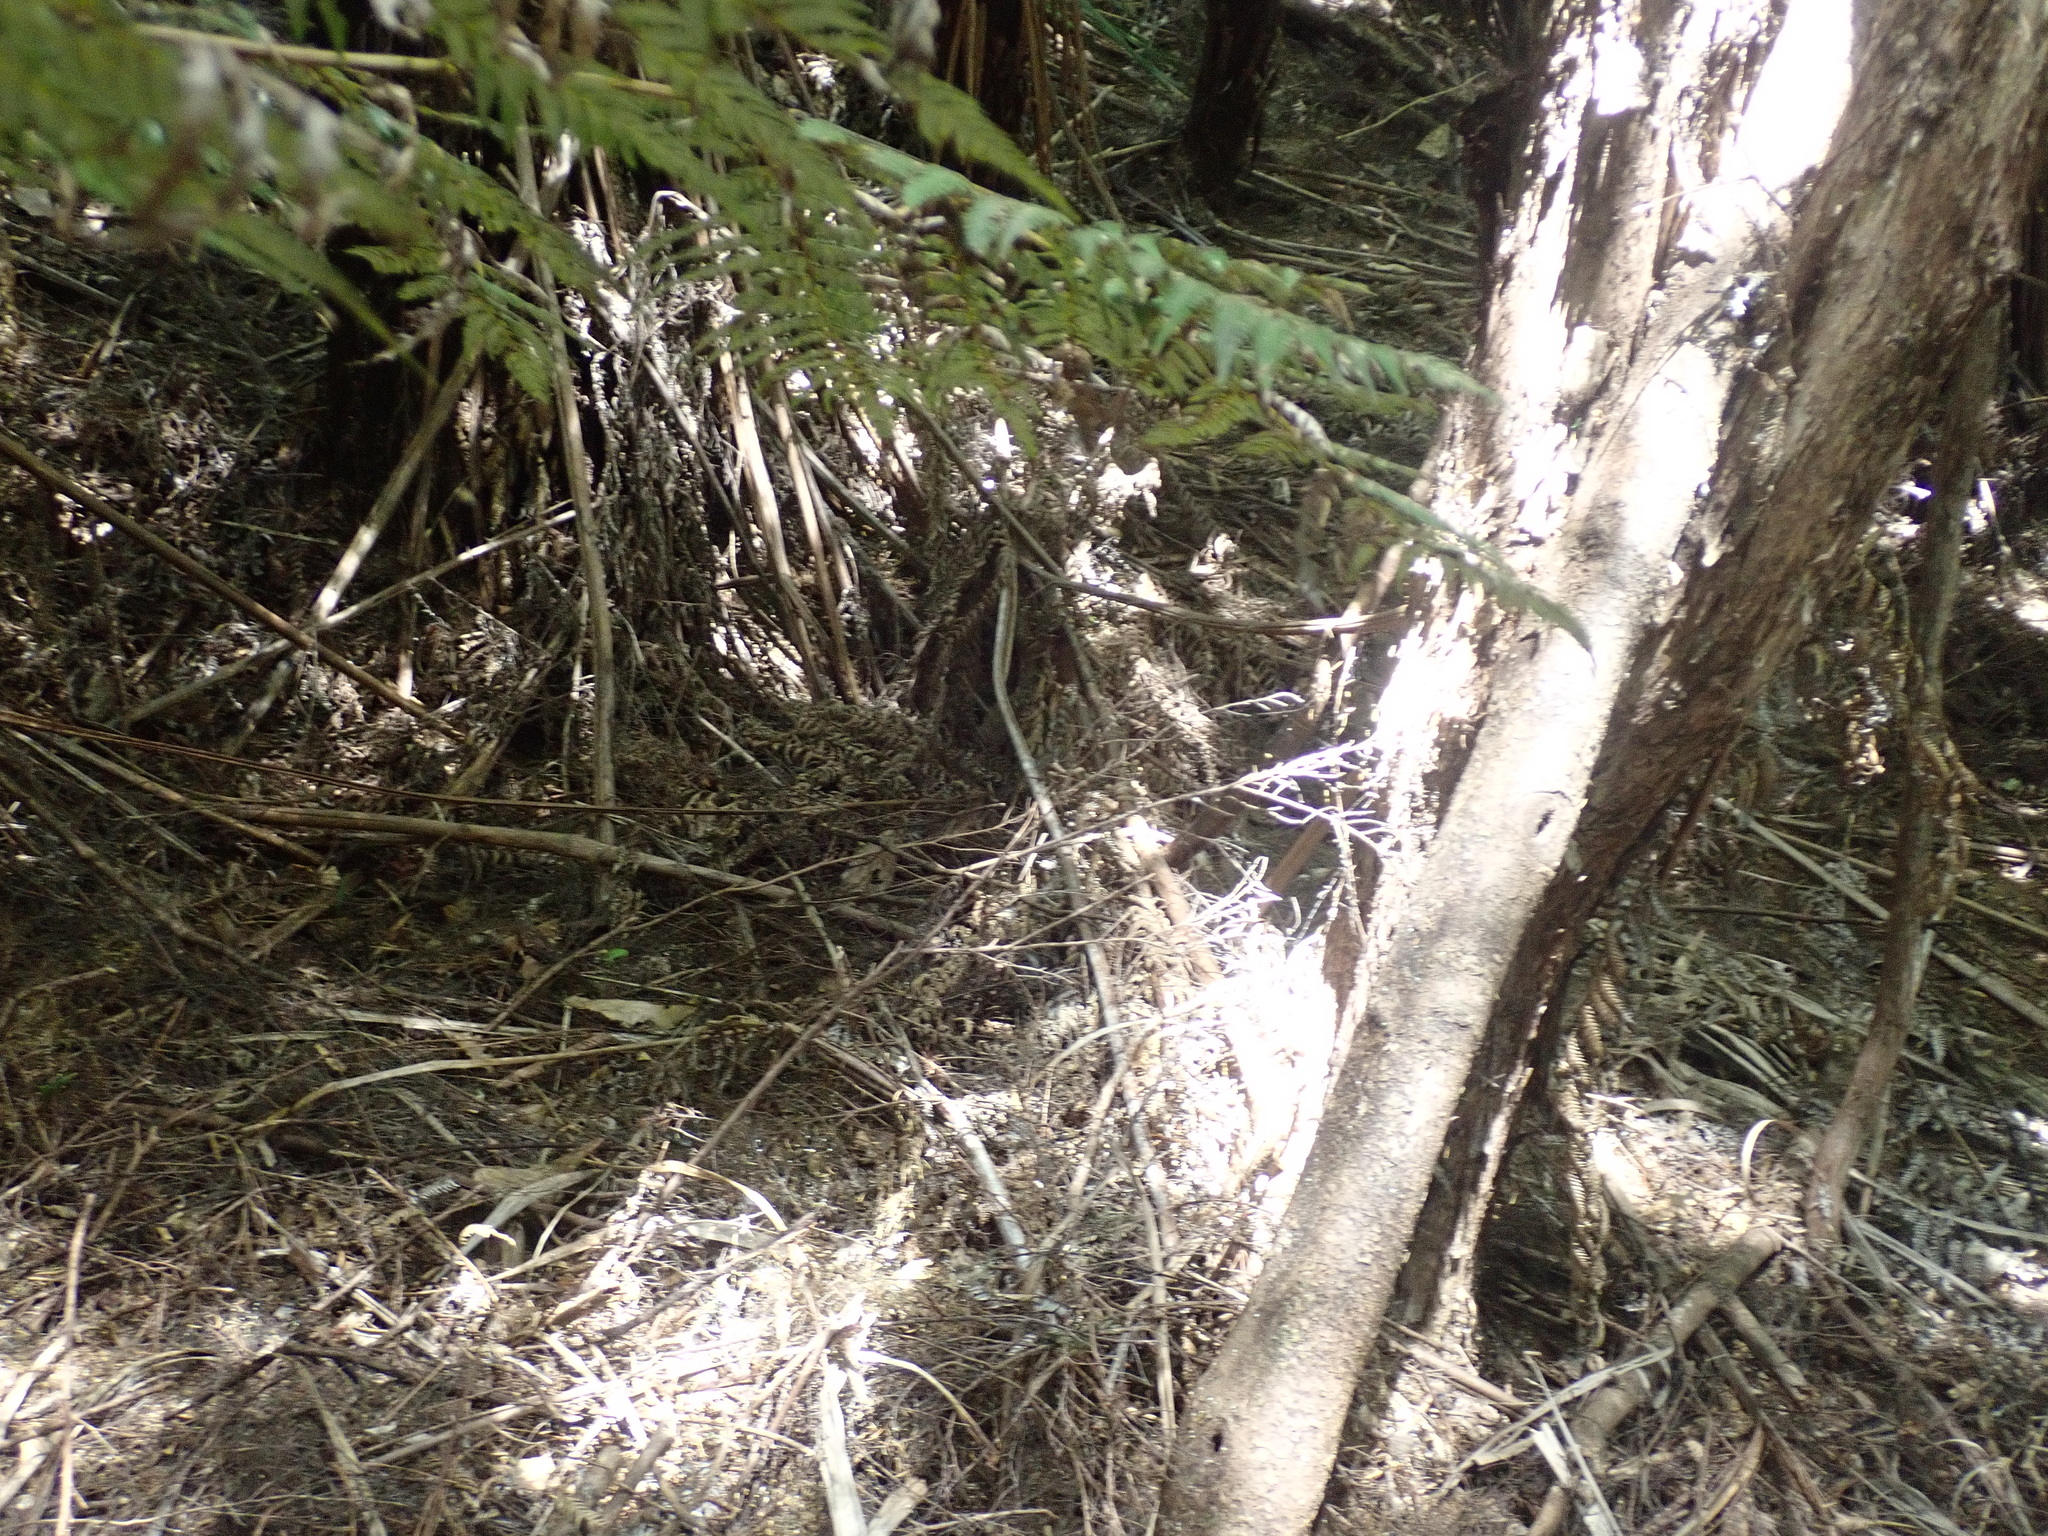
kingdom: Plantae
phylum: Tracheophyta
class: Polypodiopsida
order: Cyatheales
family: Cyatheaceae
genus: Alsophila
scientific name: Alsophila dealbata
